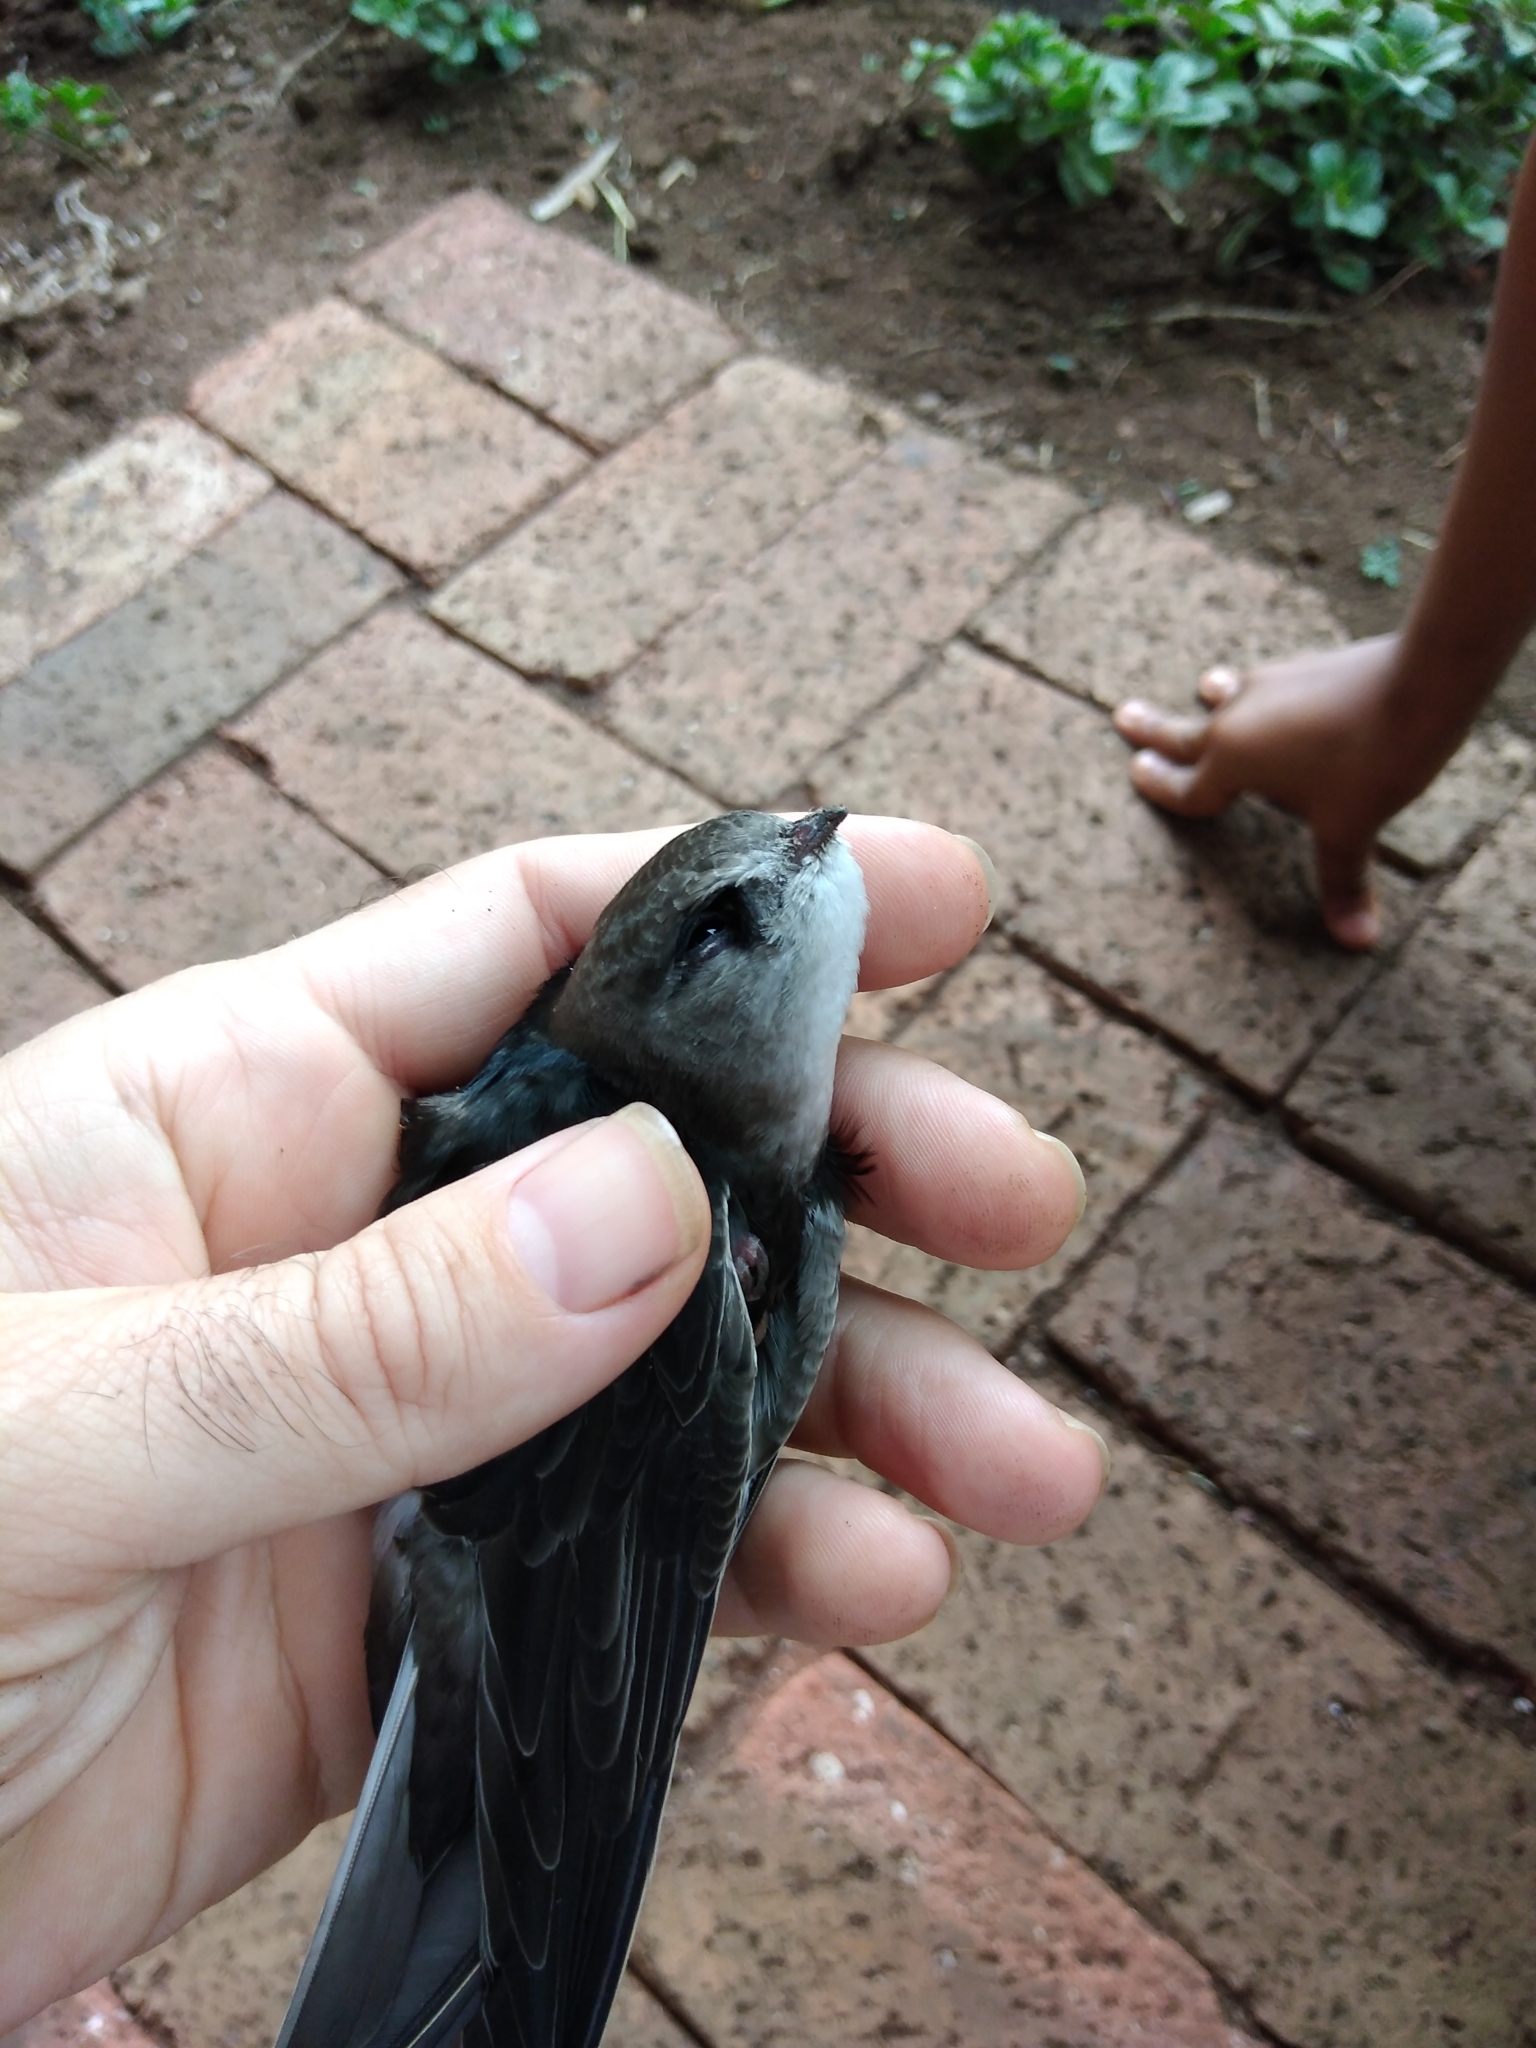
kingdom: Animalia
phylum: Chordata
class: Aves
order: Apodiformes
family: Apodidae
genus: Apus
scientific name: Apus horus
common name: Horus swift
